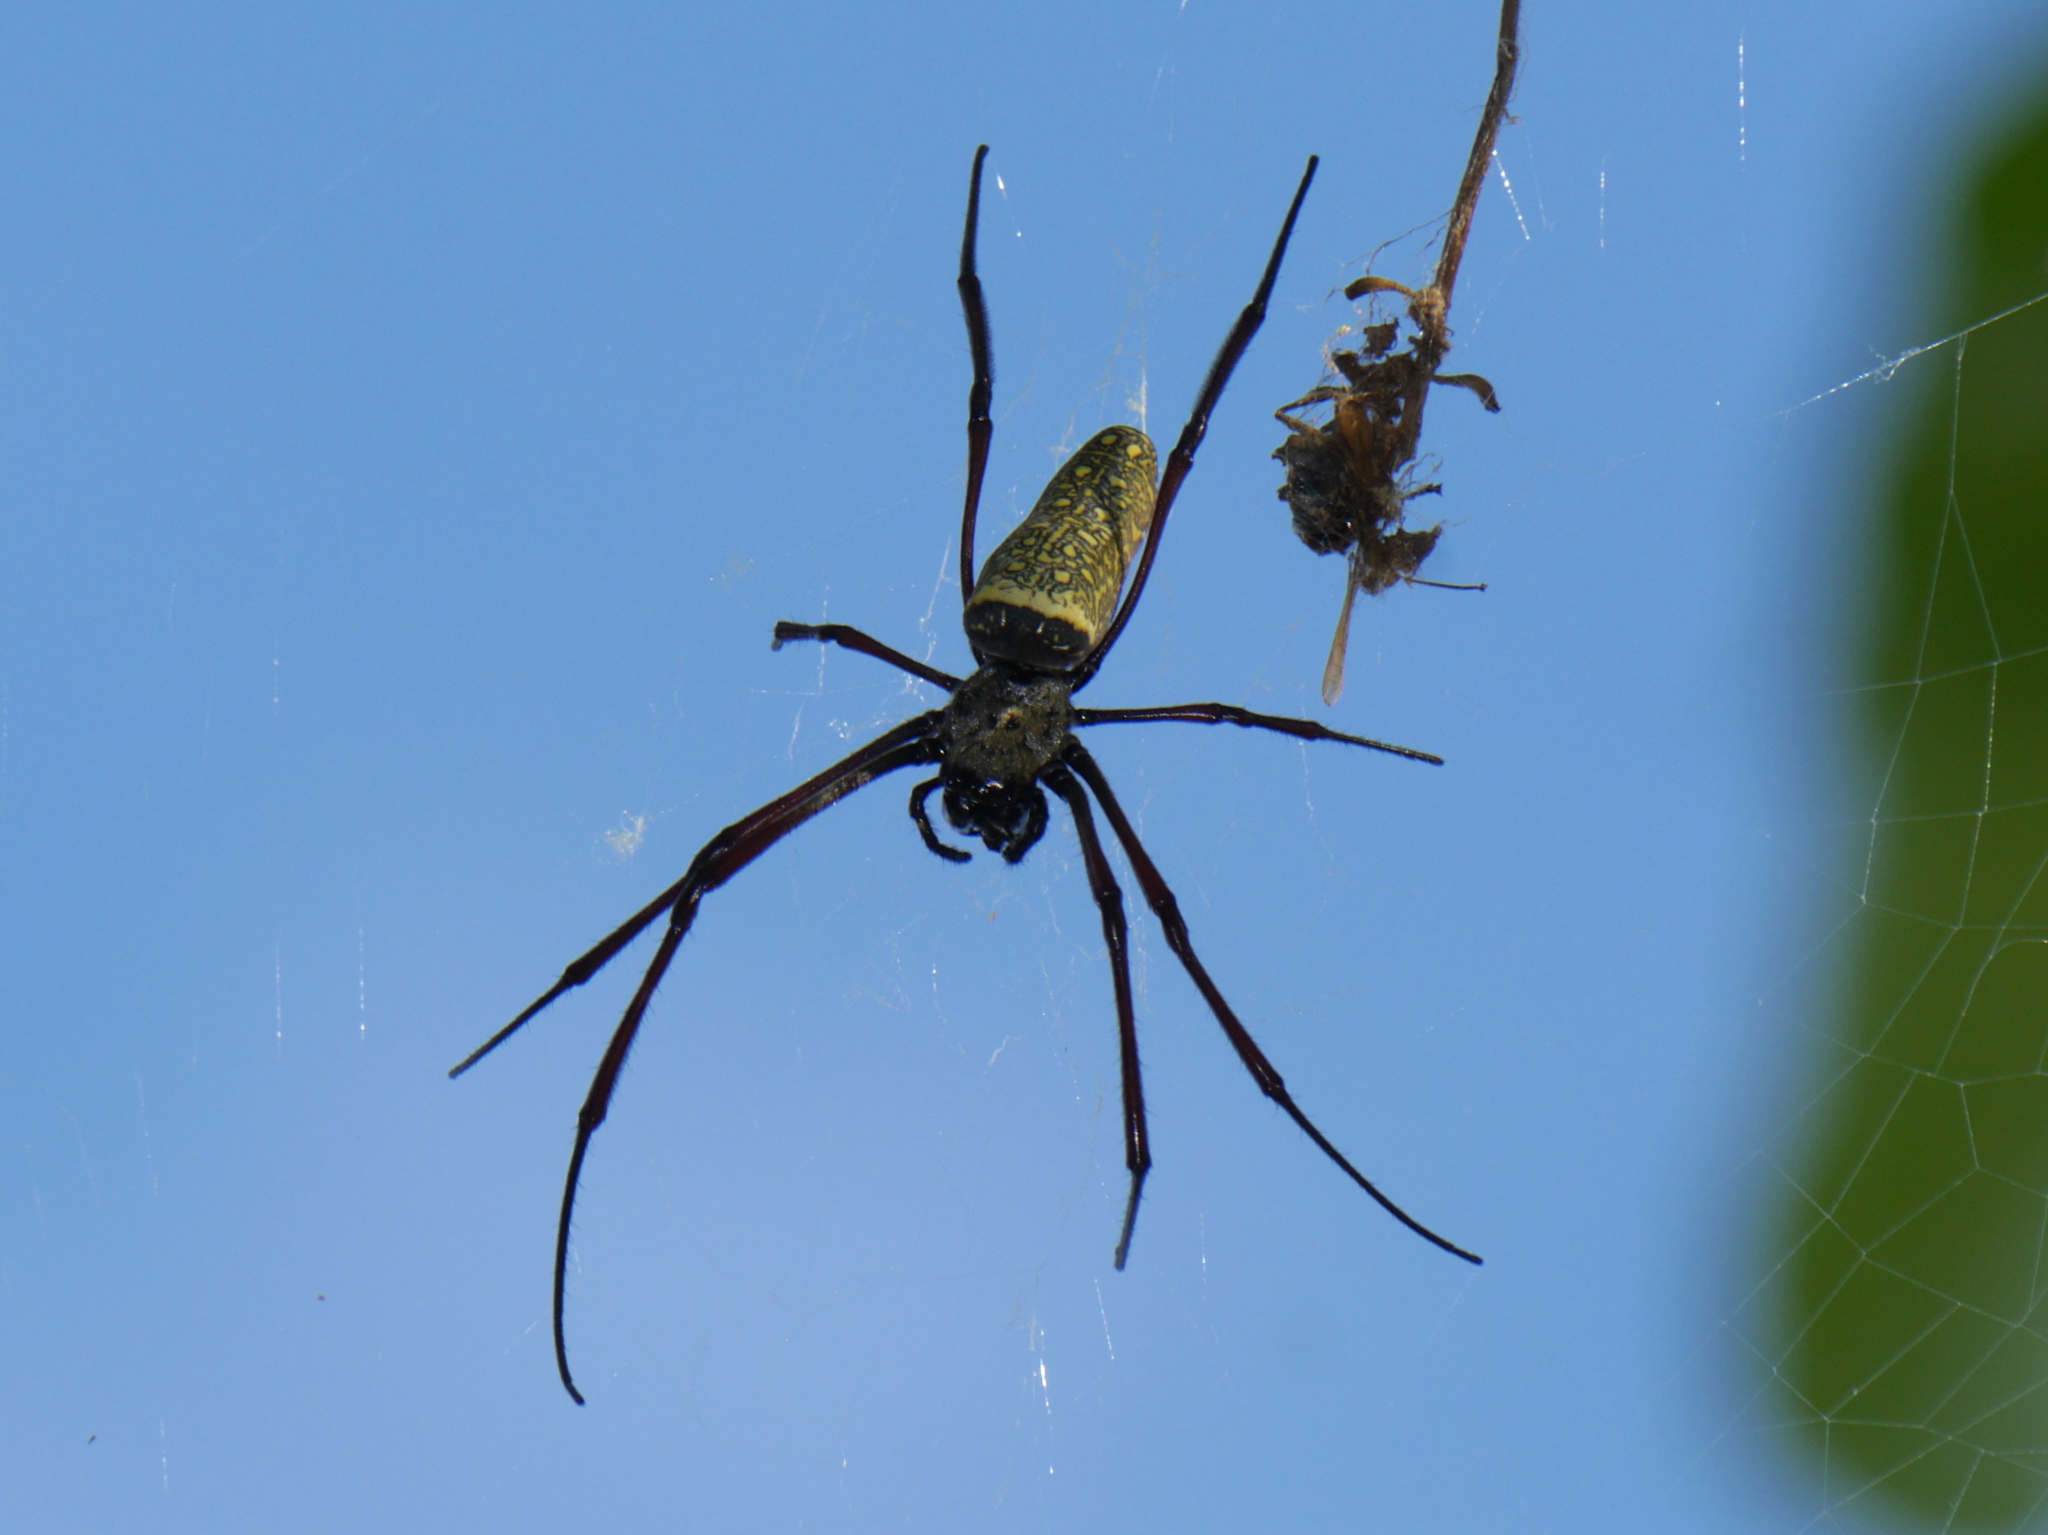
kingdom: Animalia
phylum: Arthropoda
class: Arachnida
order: Araneae
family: Araneidae
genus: Trichonephila
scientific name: Trichonephila antipodiana
